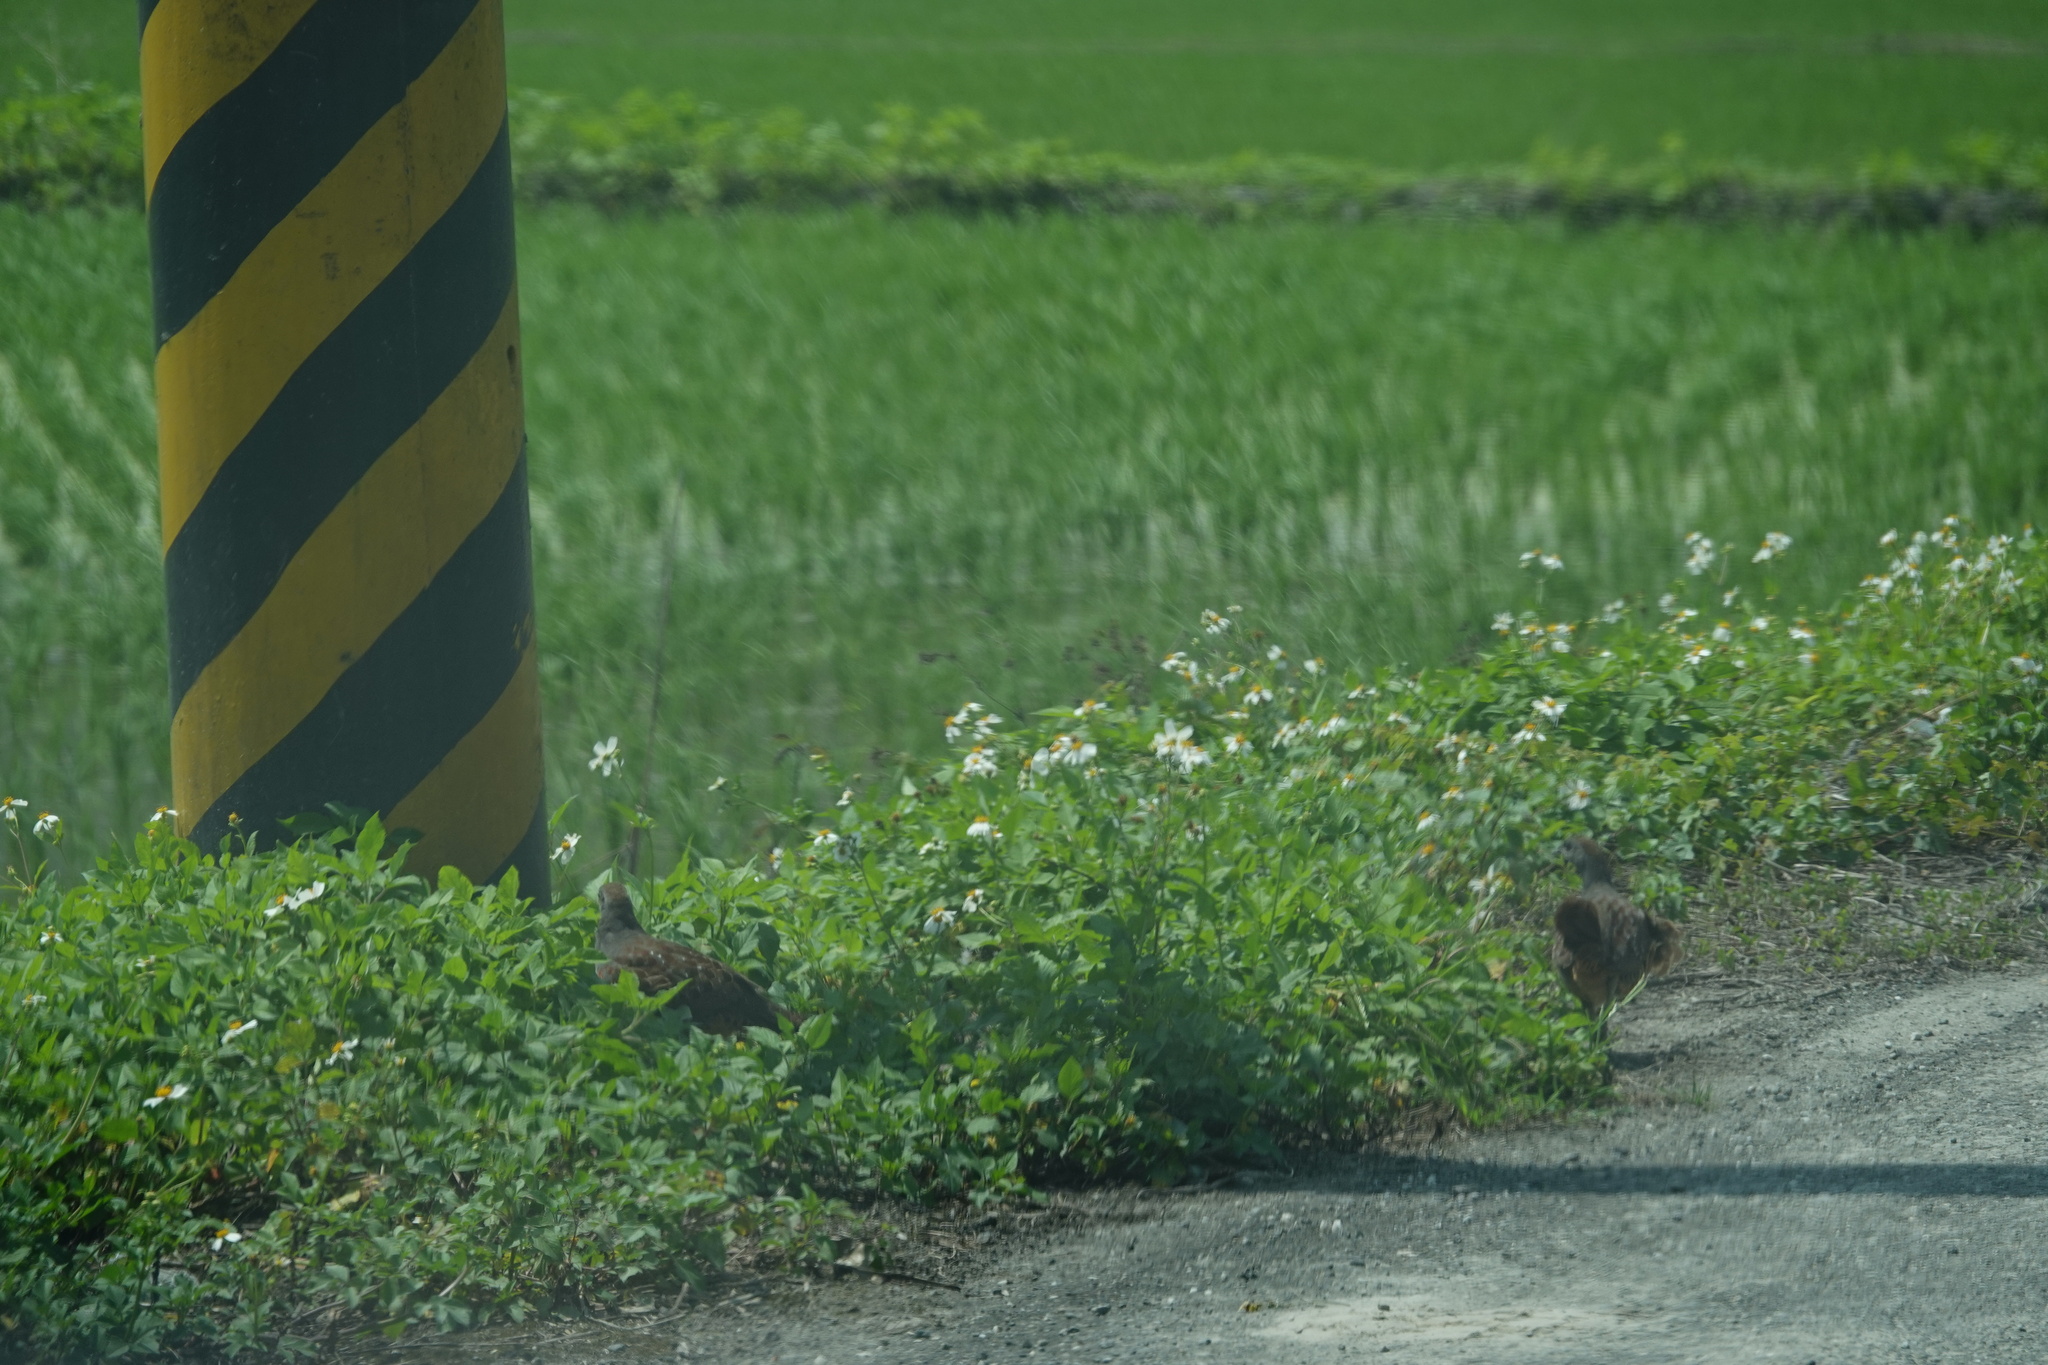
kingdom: Animalia
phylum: Chordata
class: Aves
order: Galliformes
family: Phasianidae
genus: Bambusicola
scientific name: Bambusicola sonorivox
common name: Taiwan bamboo-partridge
